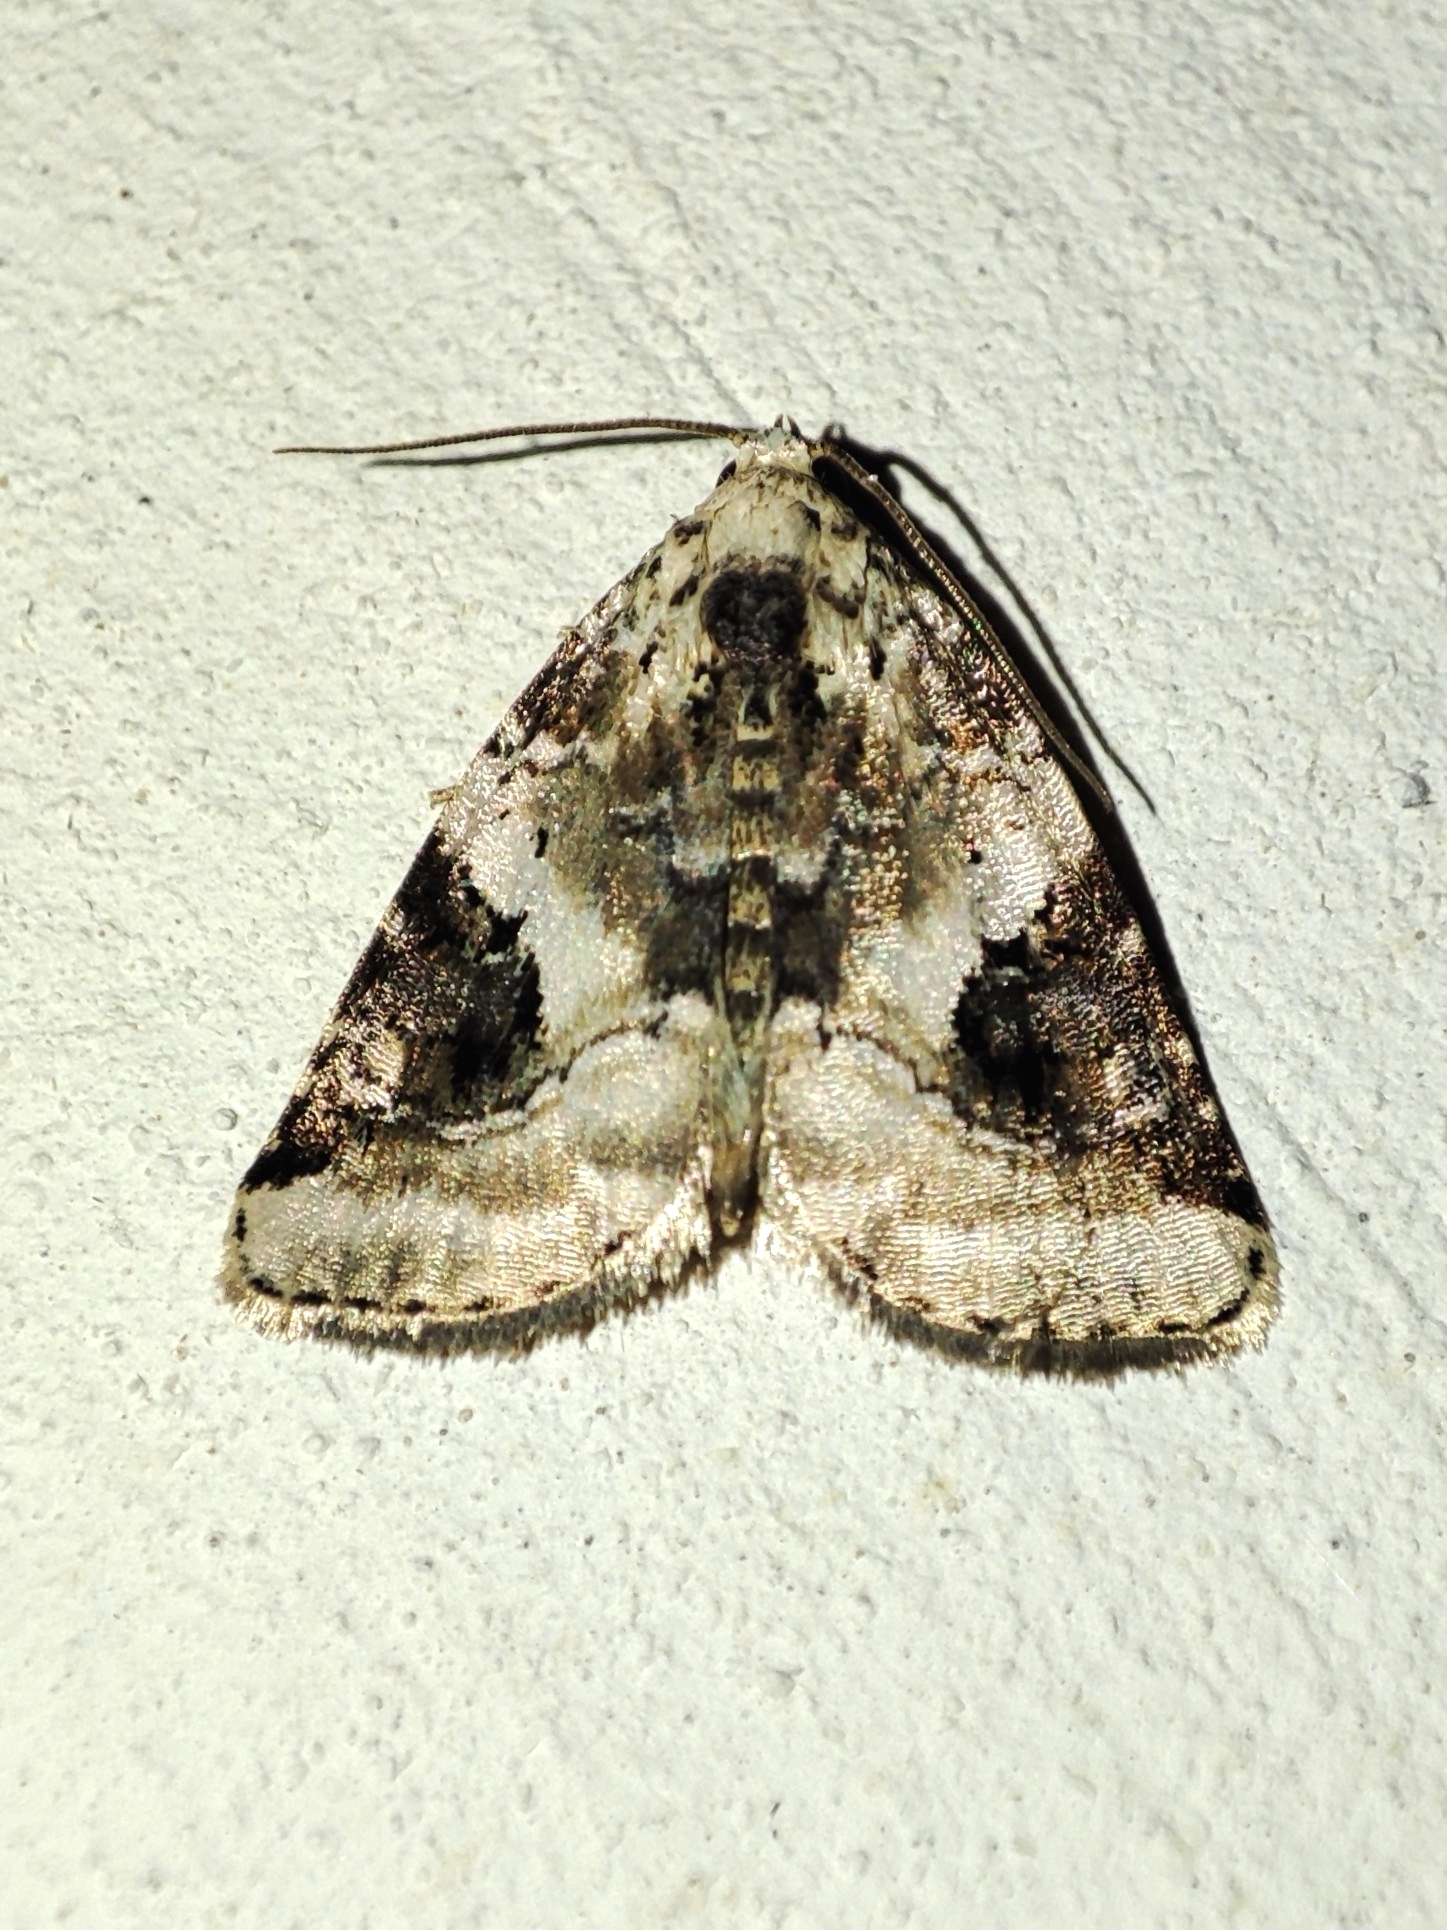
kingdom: Animalia
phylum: Arthropoda
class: Insecta
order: Lepidoptera
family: Noctuidae
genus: Pseudeustrotia
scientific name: Pseudeustrotia candidula
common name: Shining marbled
